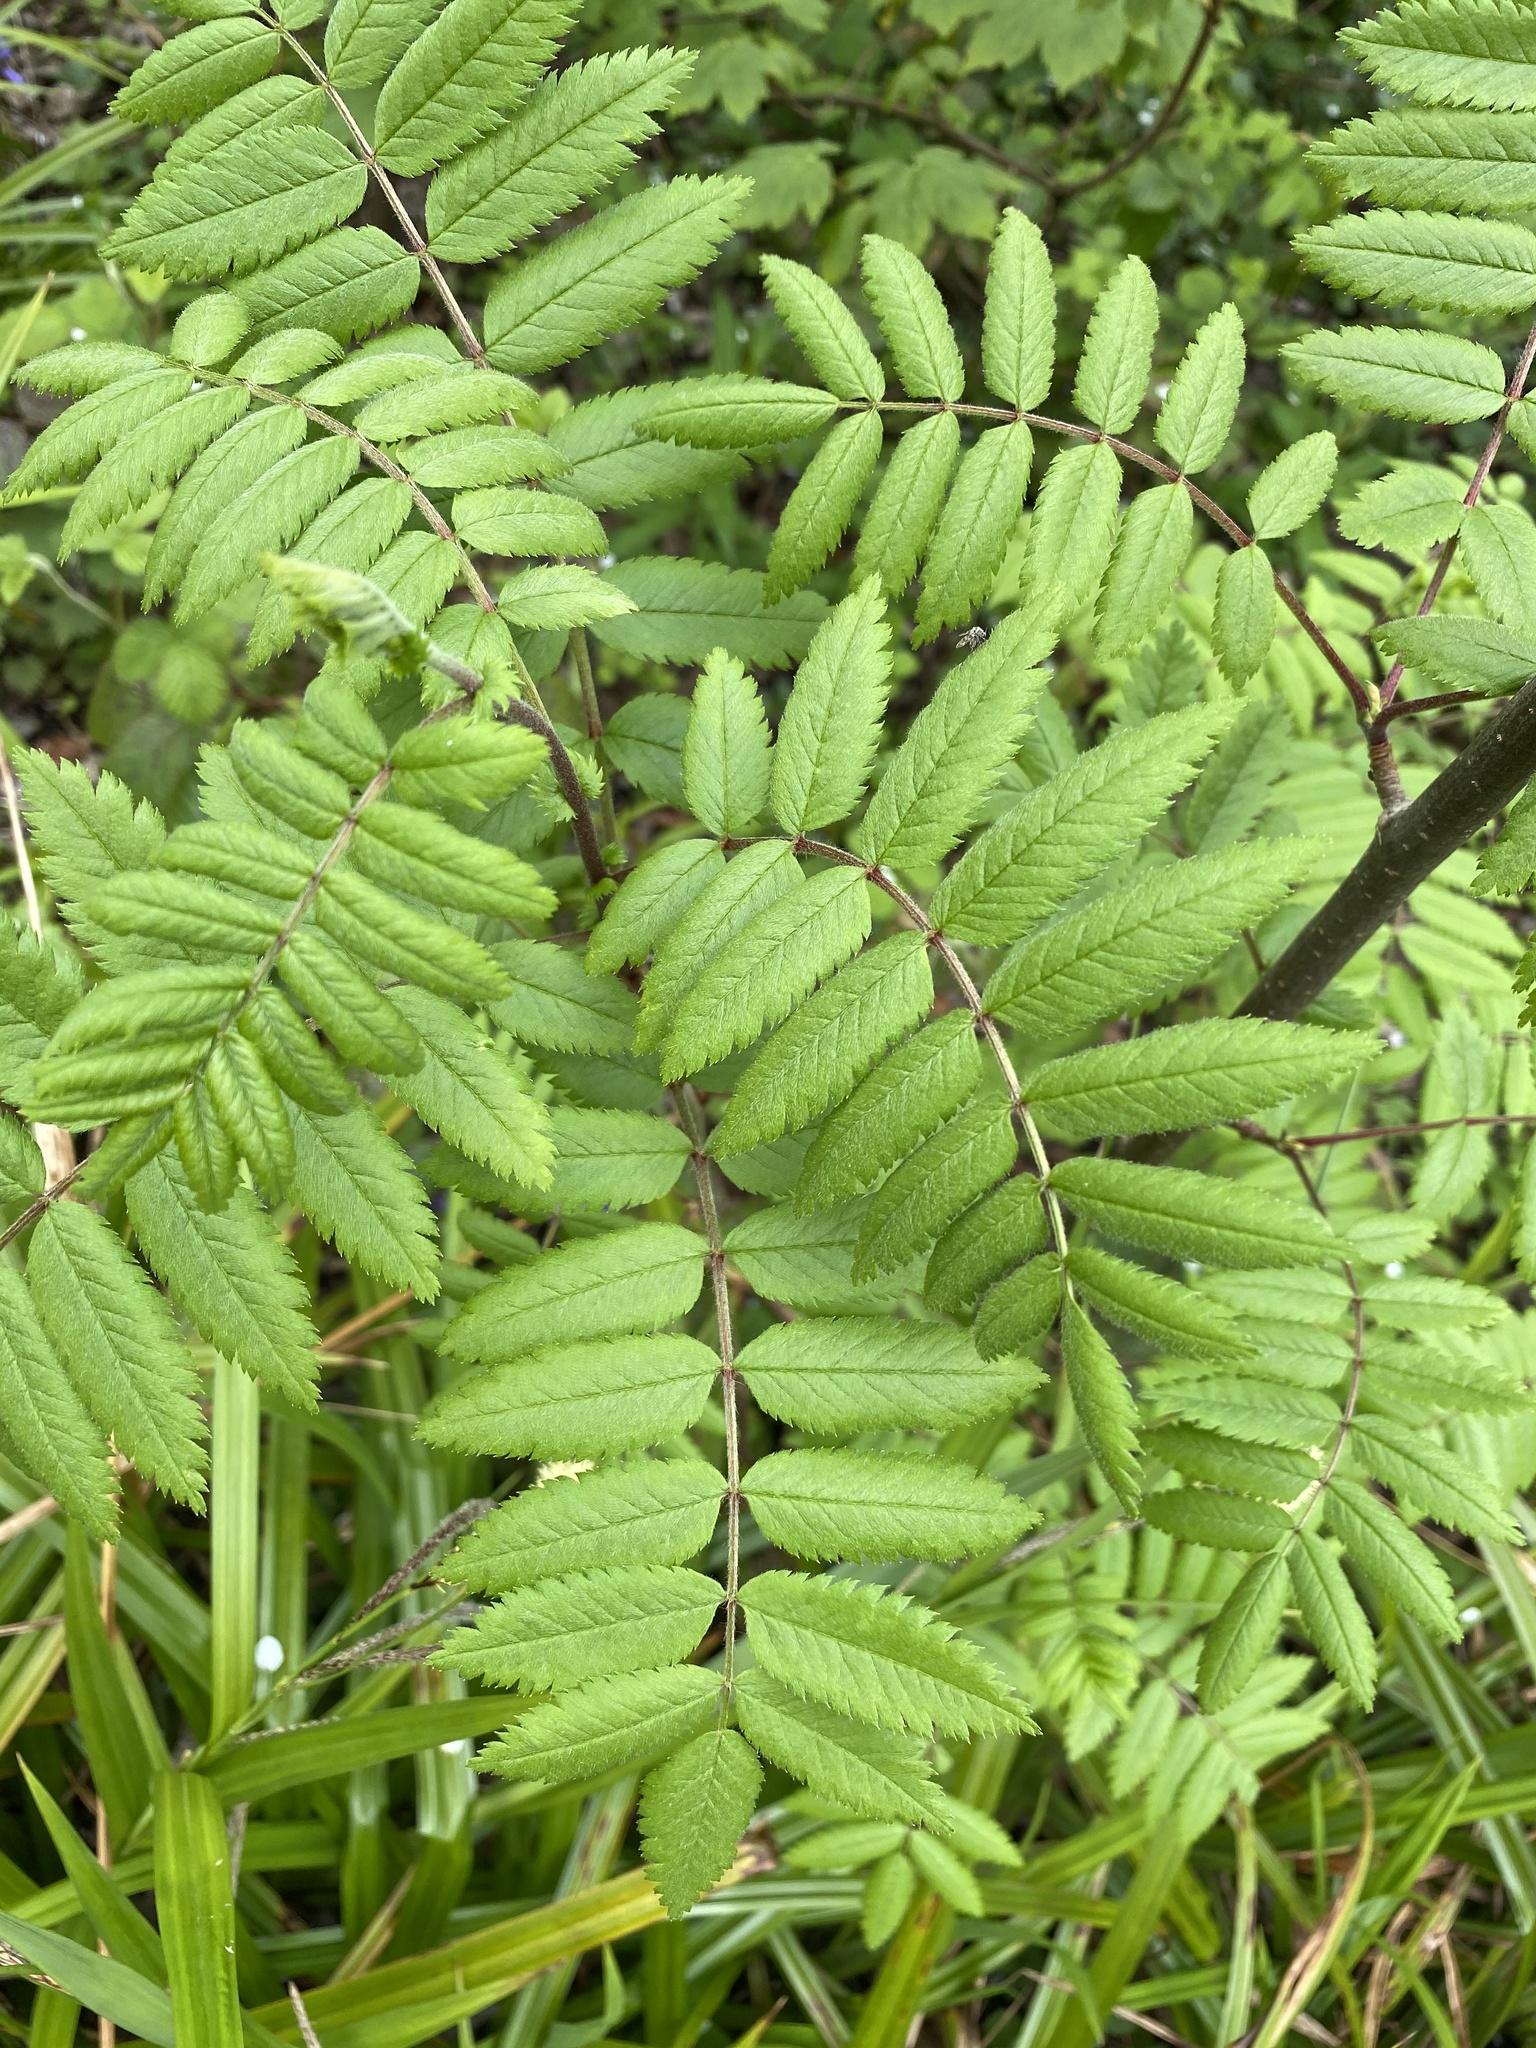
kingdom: Plantae
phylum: Tracheophyta
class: Magnoliopsida
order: Rosales
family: Rosaceae
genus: Sorbus
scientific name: Sorbus aucuparia
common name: Rowan
